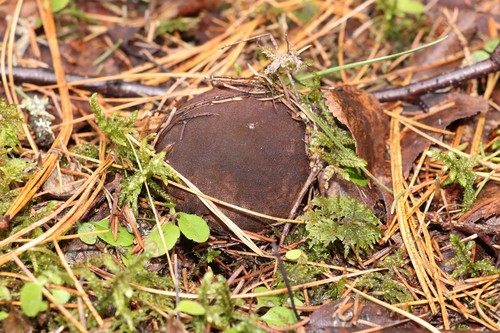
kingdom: Fungi
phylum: Ascomycota
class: Pezizomycetes
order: Pezizales
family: Sarcosomataceae
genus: Sarcosoma
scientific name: Sarcosoma globosum
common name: Charred-pancake cup
